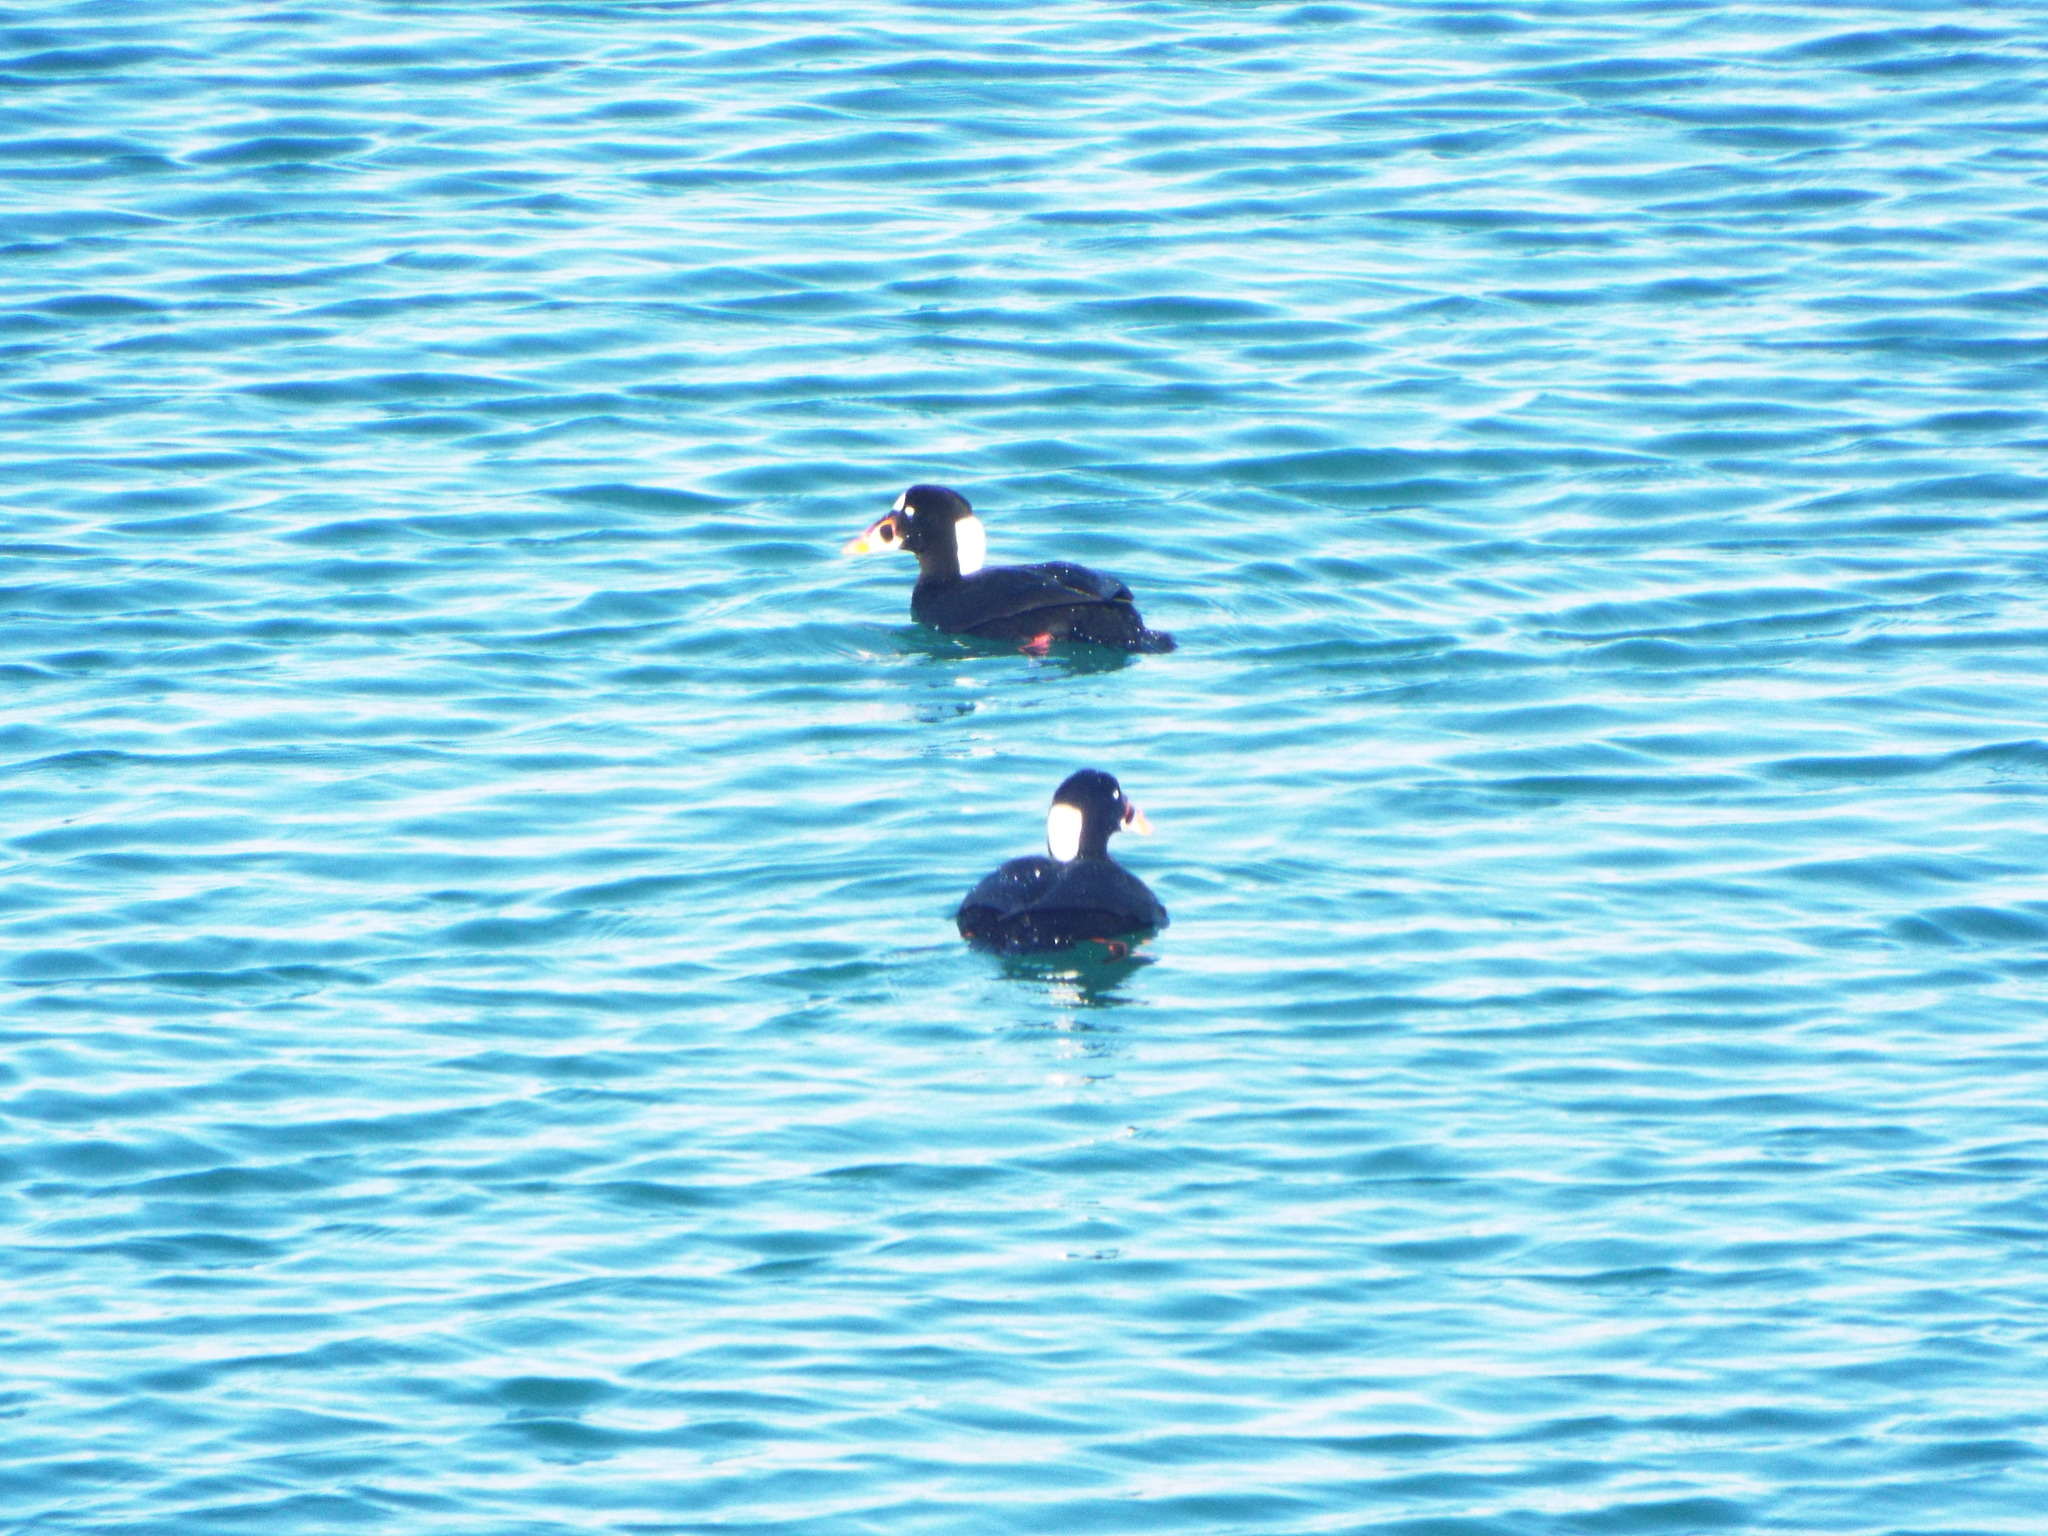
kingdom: Animalia
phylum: Chordata
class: Aves
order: Anseriformes
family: Anatidae
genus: Melanitta
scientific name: Melanitta perspicillata
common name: Surf scoter
